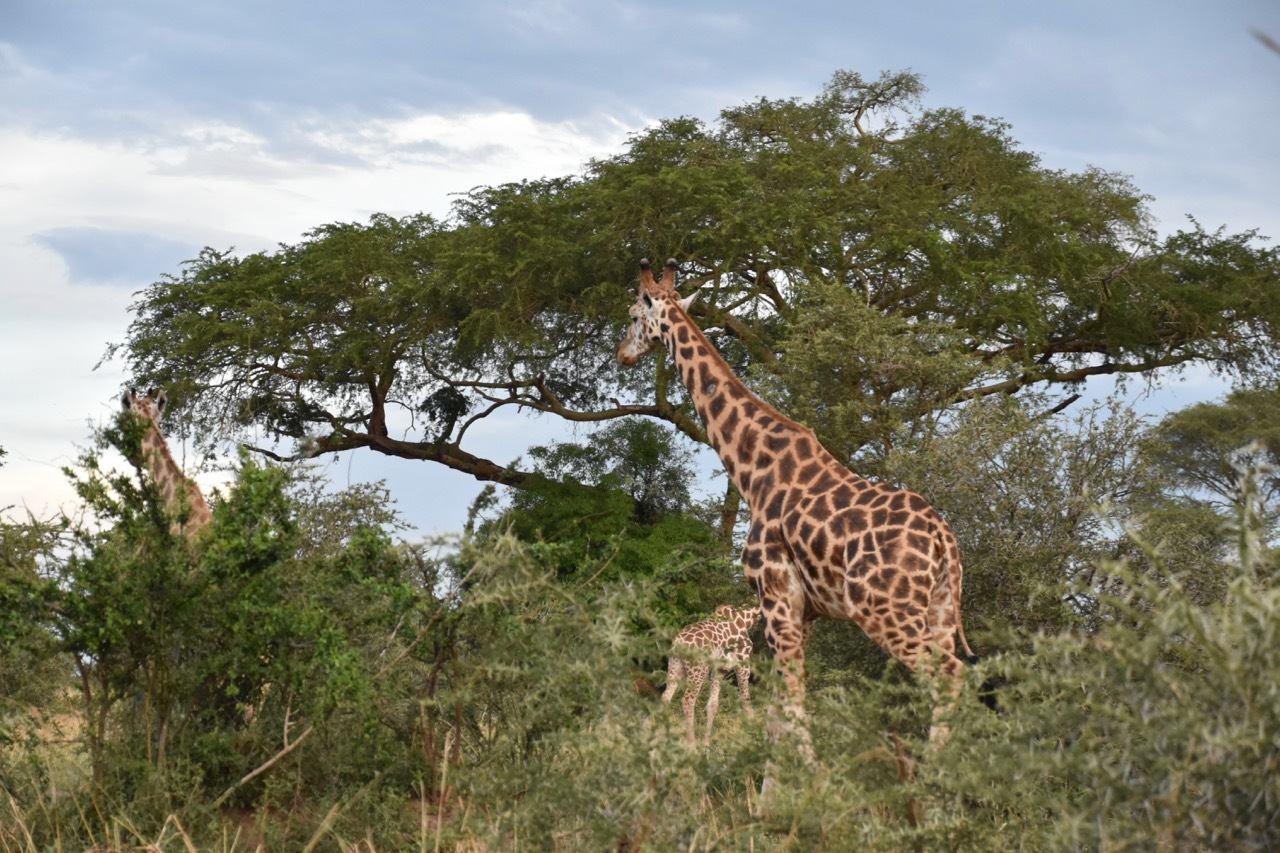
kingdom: Animalia
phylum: Chordata
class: Mammalia
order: Artiodactyla
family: Giraffidae
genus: Giraffa
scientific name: Giraffa camelopardalis
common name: Giraffe
